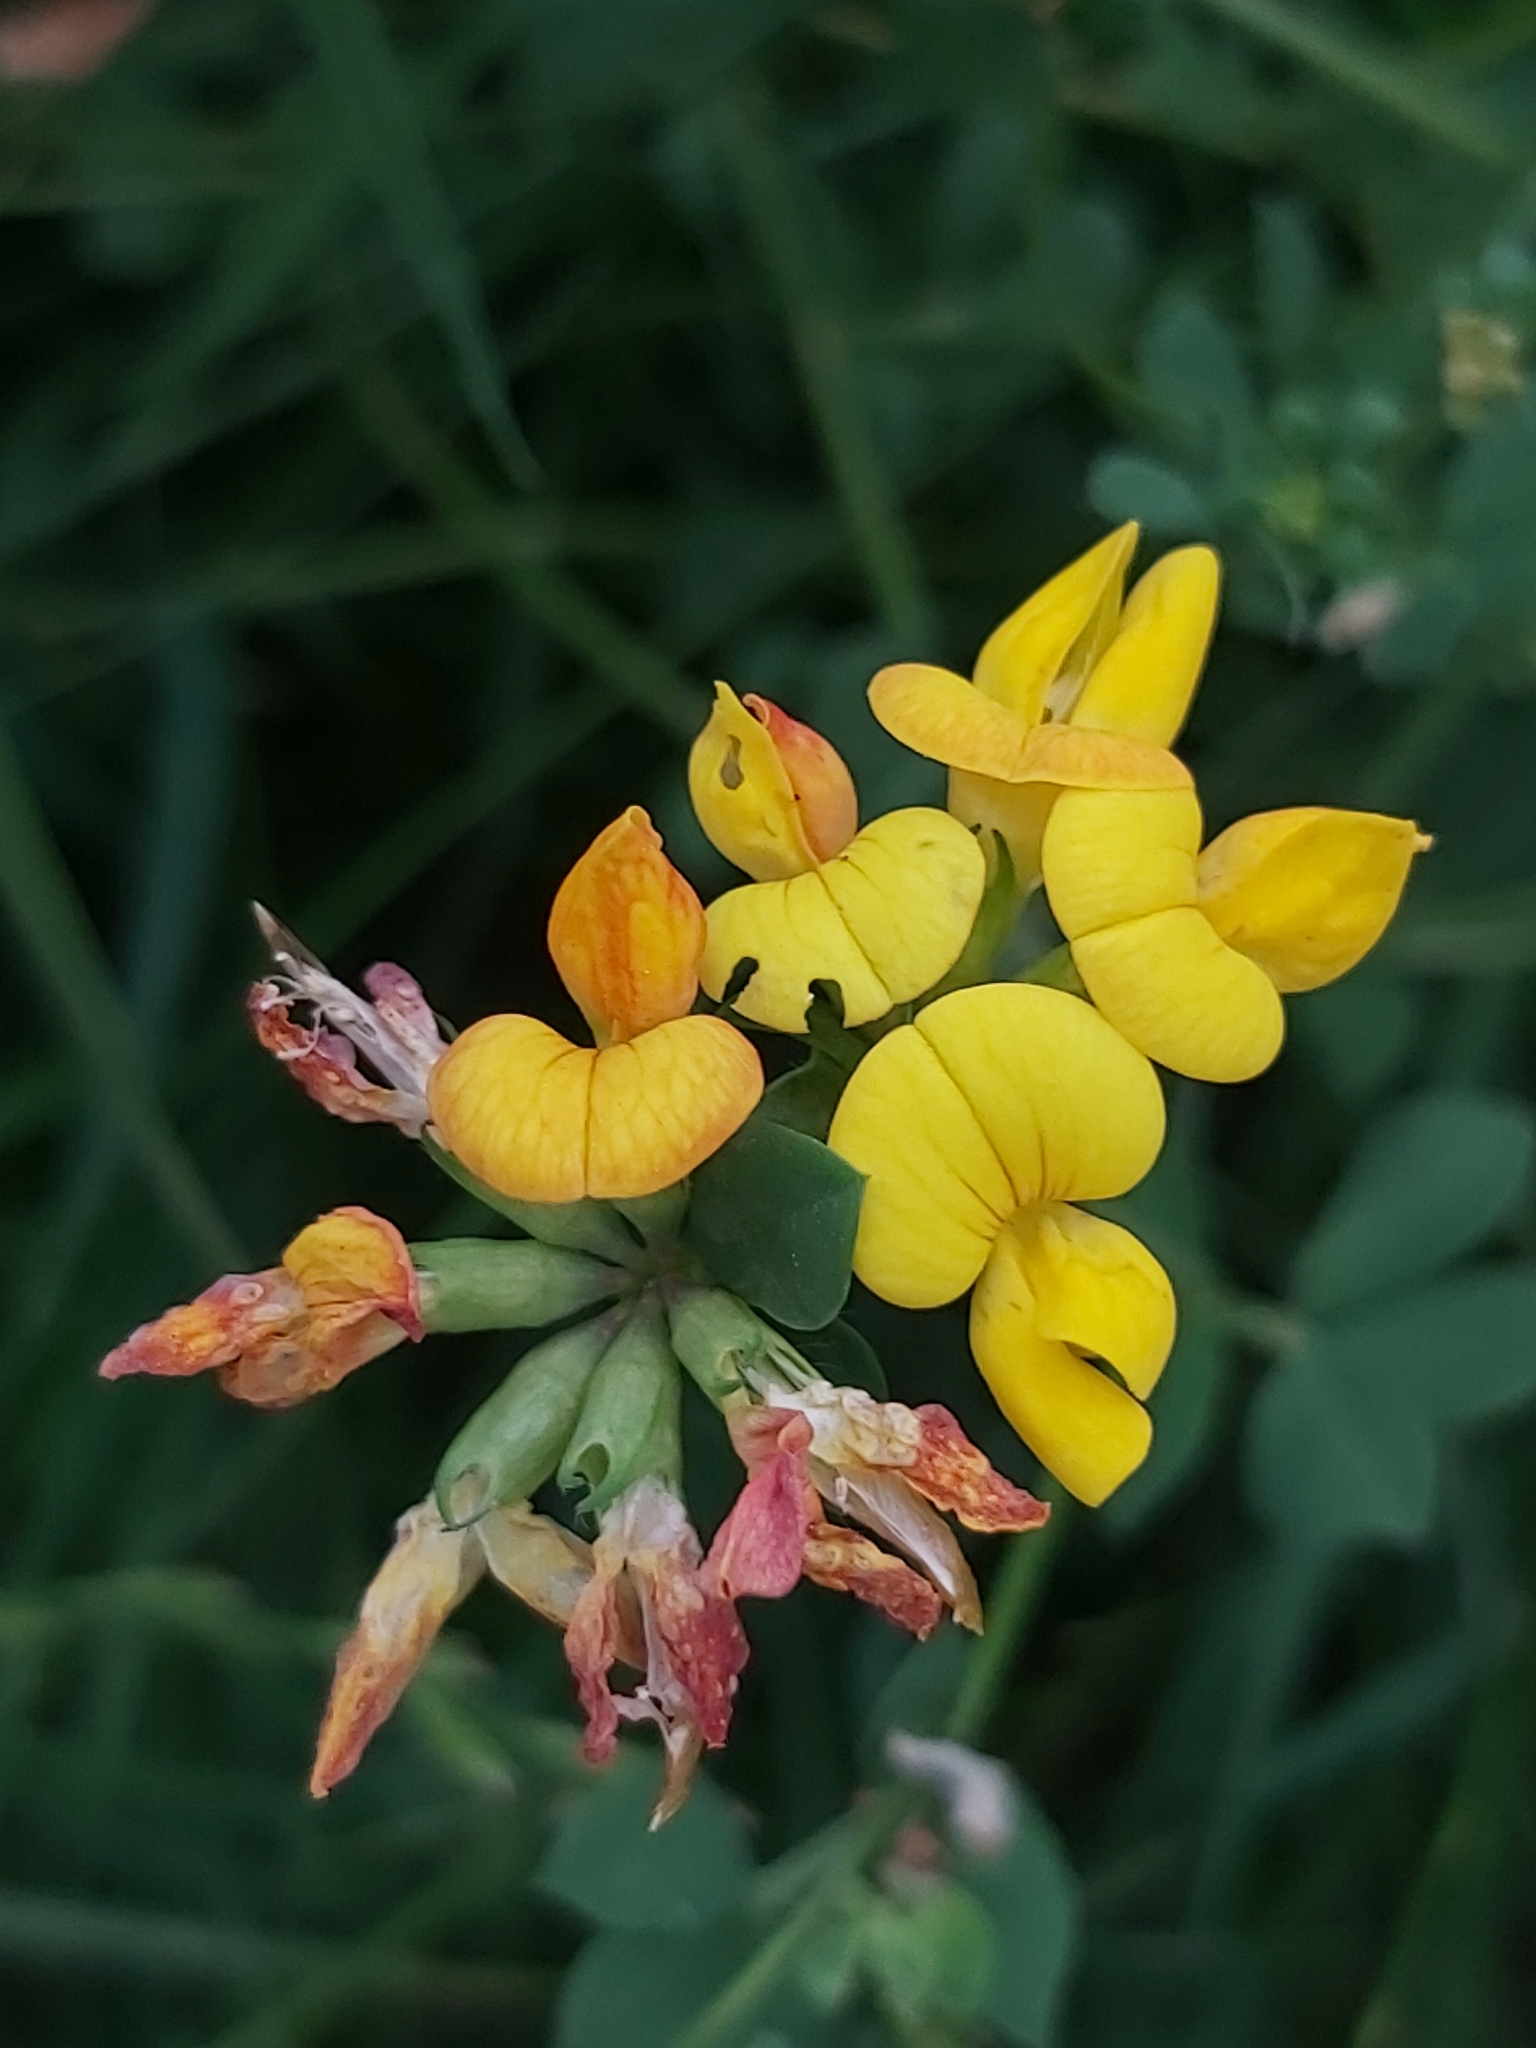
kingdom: Plantae
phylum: Tracheophyta
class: Magnoliopsida
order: Fabales
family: Fabaceae
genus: Lotus
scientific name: Lotus corniculatus
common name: Common bird's-foot-trefoil
